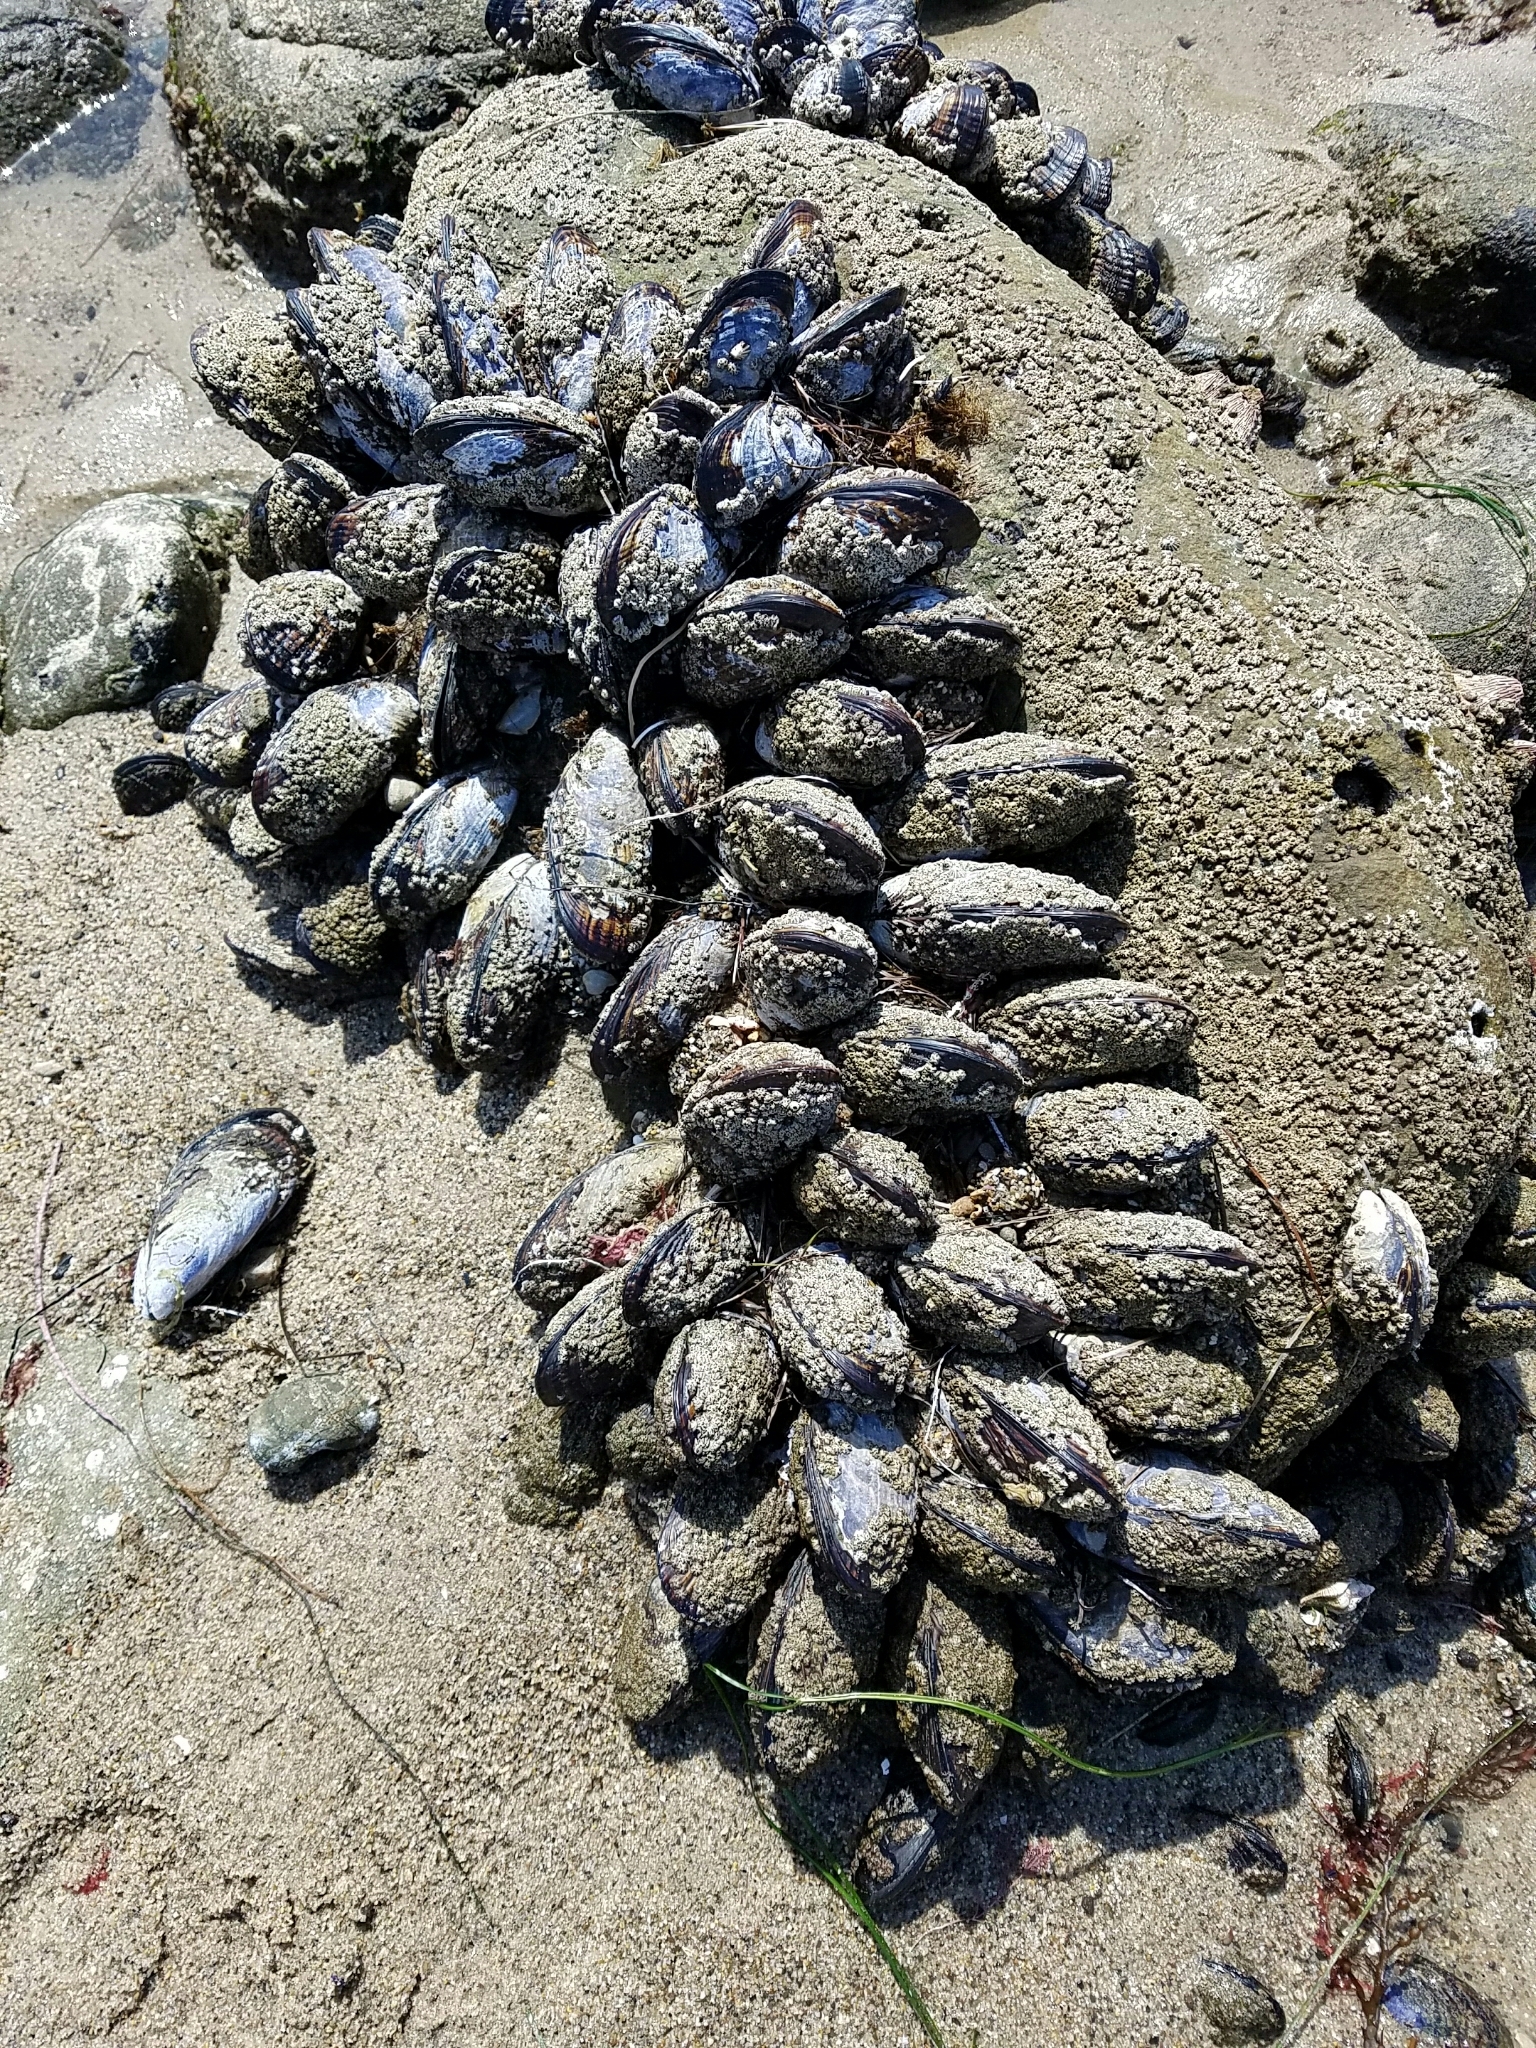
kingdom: Animalia
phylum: Mollusca
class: Bivalvia
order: Mytilida
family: Mytilidae
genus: Mytilus
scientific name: Mytilus californianus
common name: California mussel
